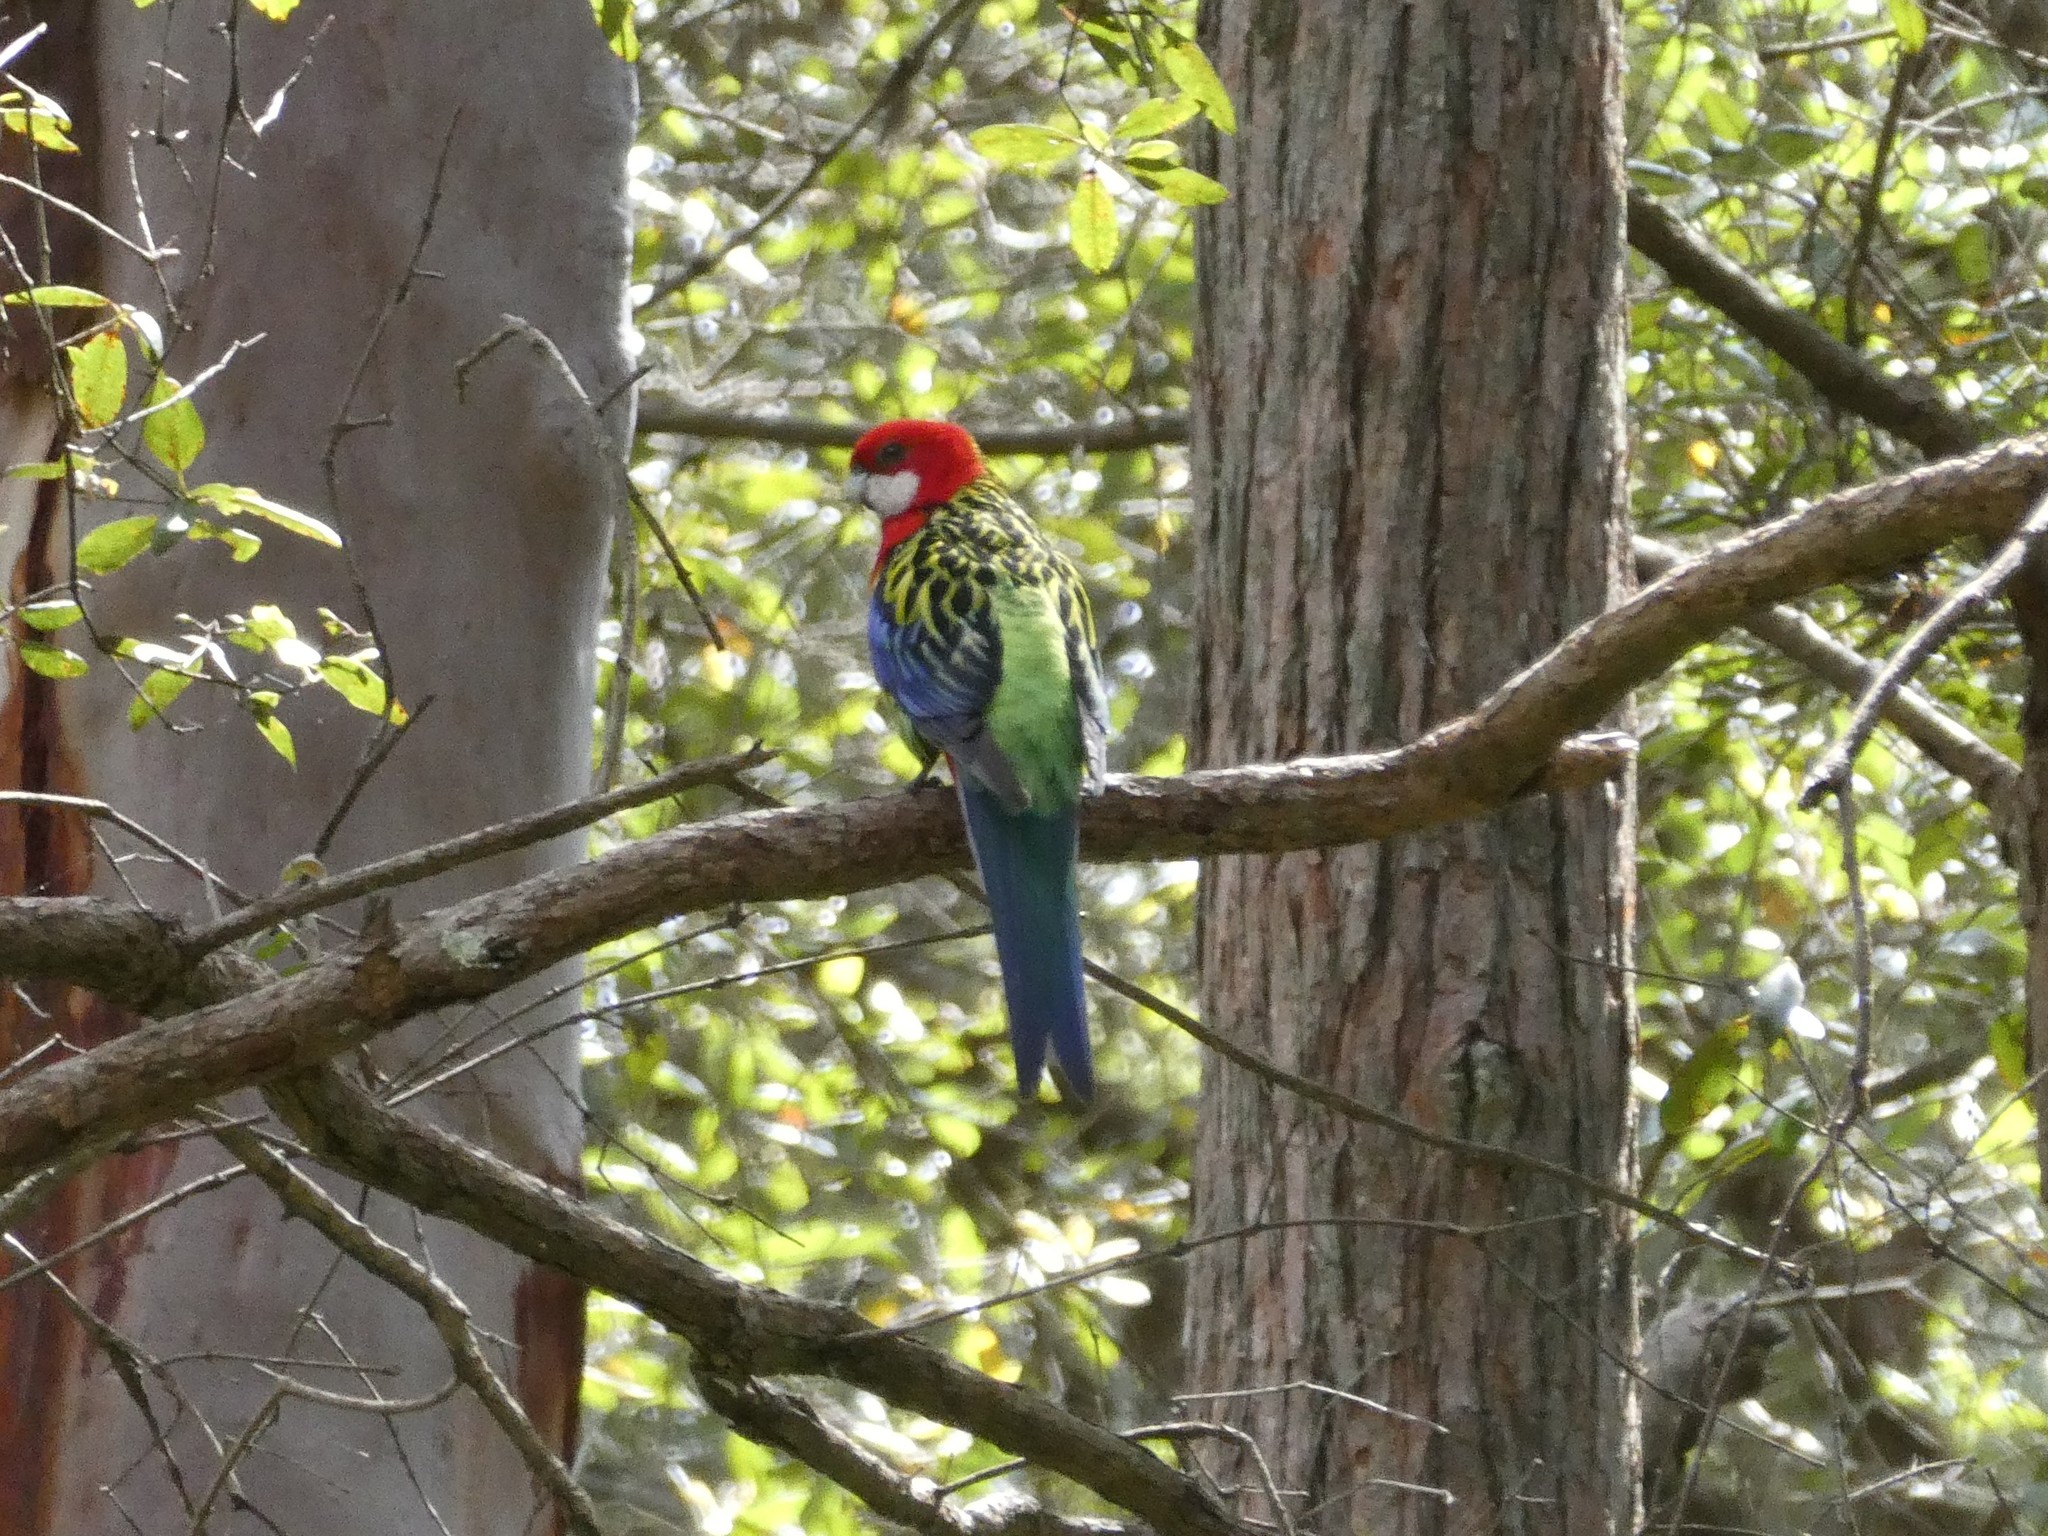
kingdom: Animalia
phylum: Chordata
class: Aves
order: Psittaciformes
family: Psittacidae
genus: Platycercus
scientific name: Platycercus eximius
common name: Eastern rosella
